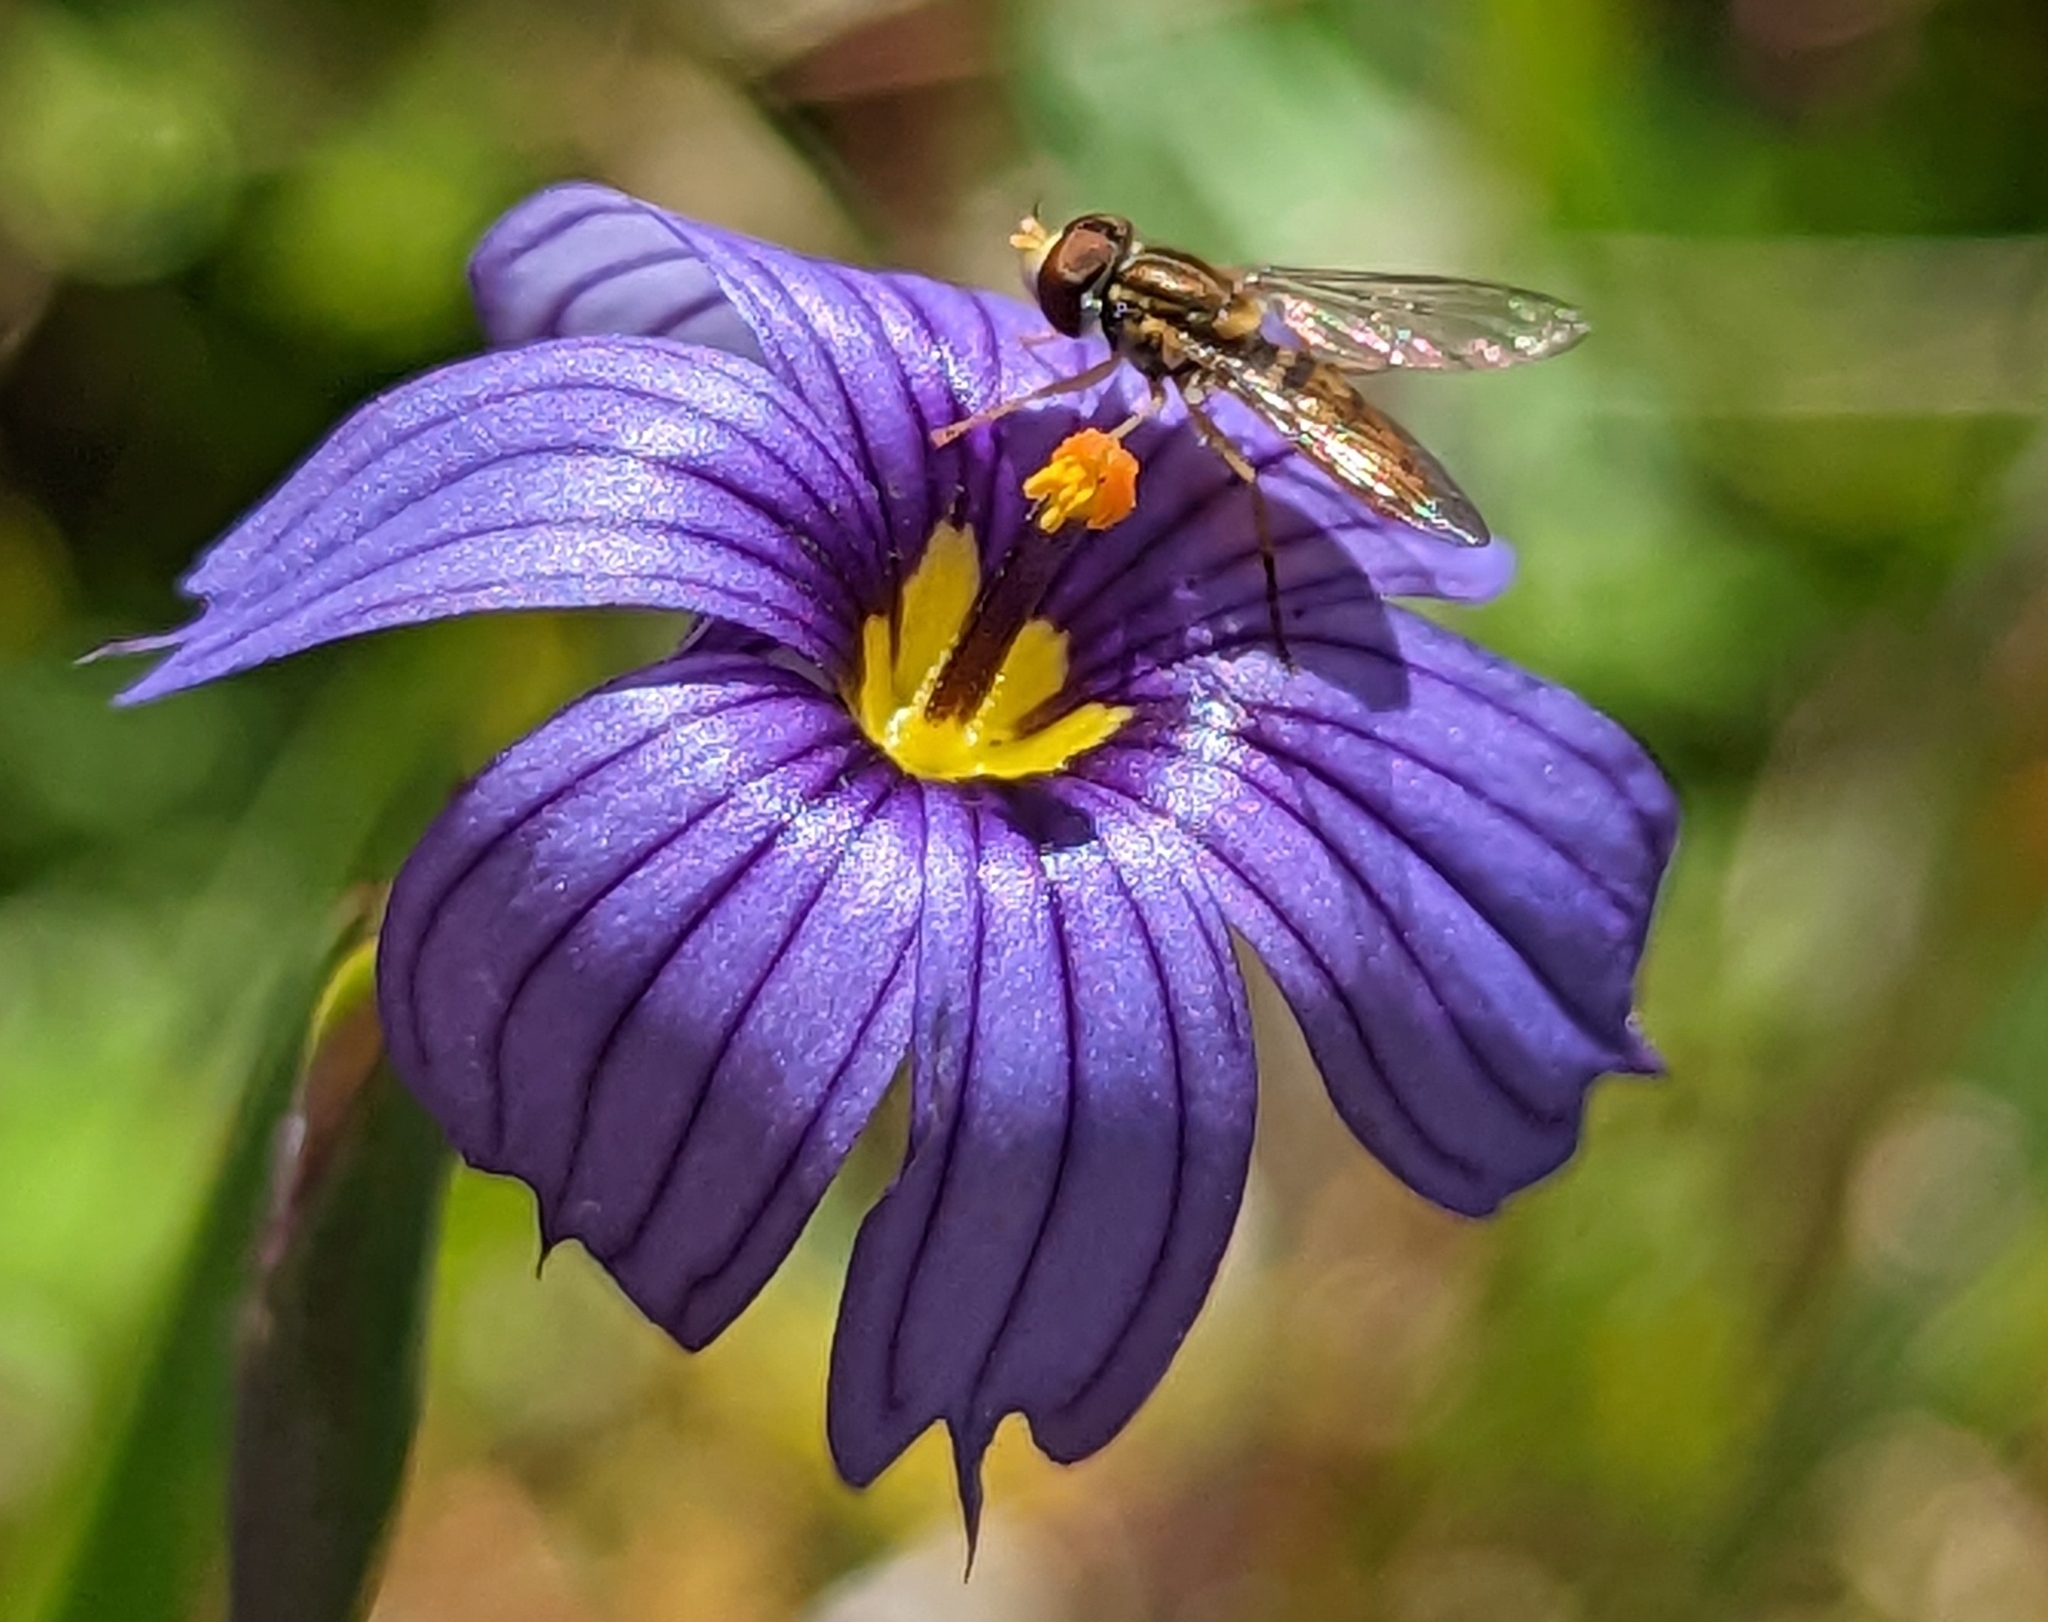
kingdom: Animalia
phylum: Arthropoda
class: Insecta
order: Diptera
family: Syrphidae
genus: Toxomerus
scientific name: Toxomerus marginatus
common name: Syrphid fly
